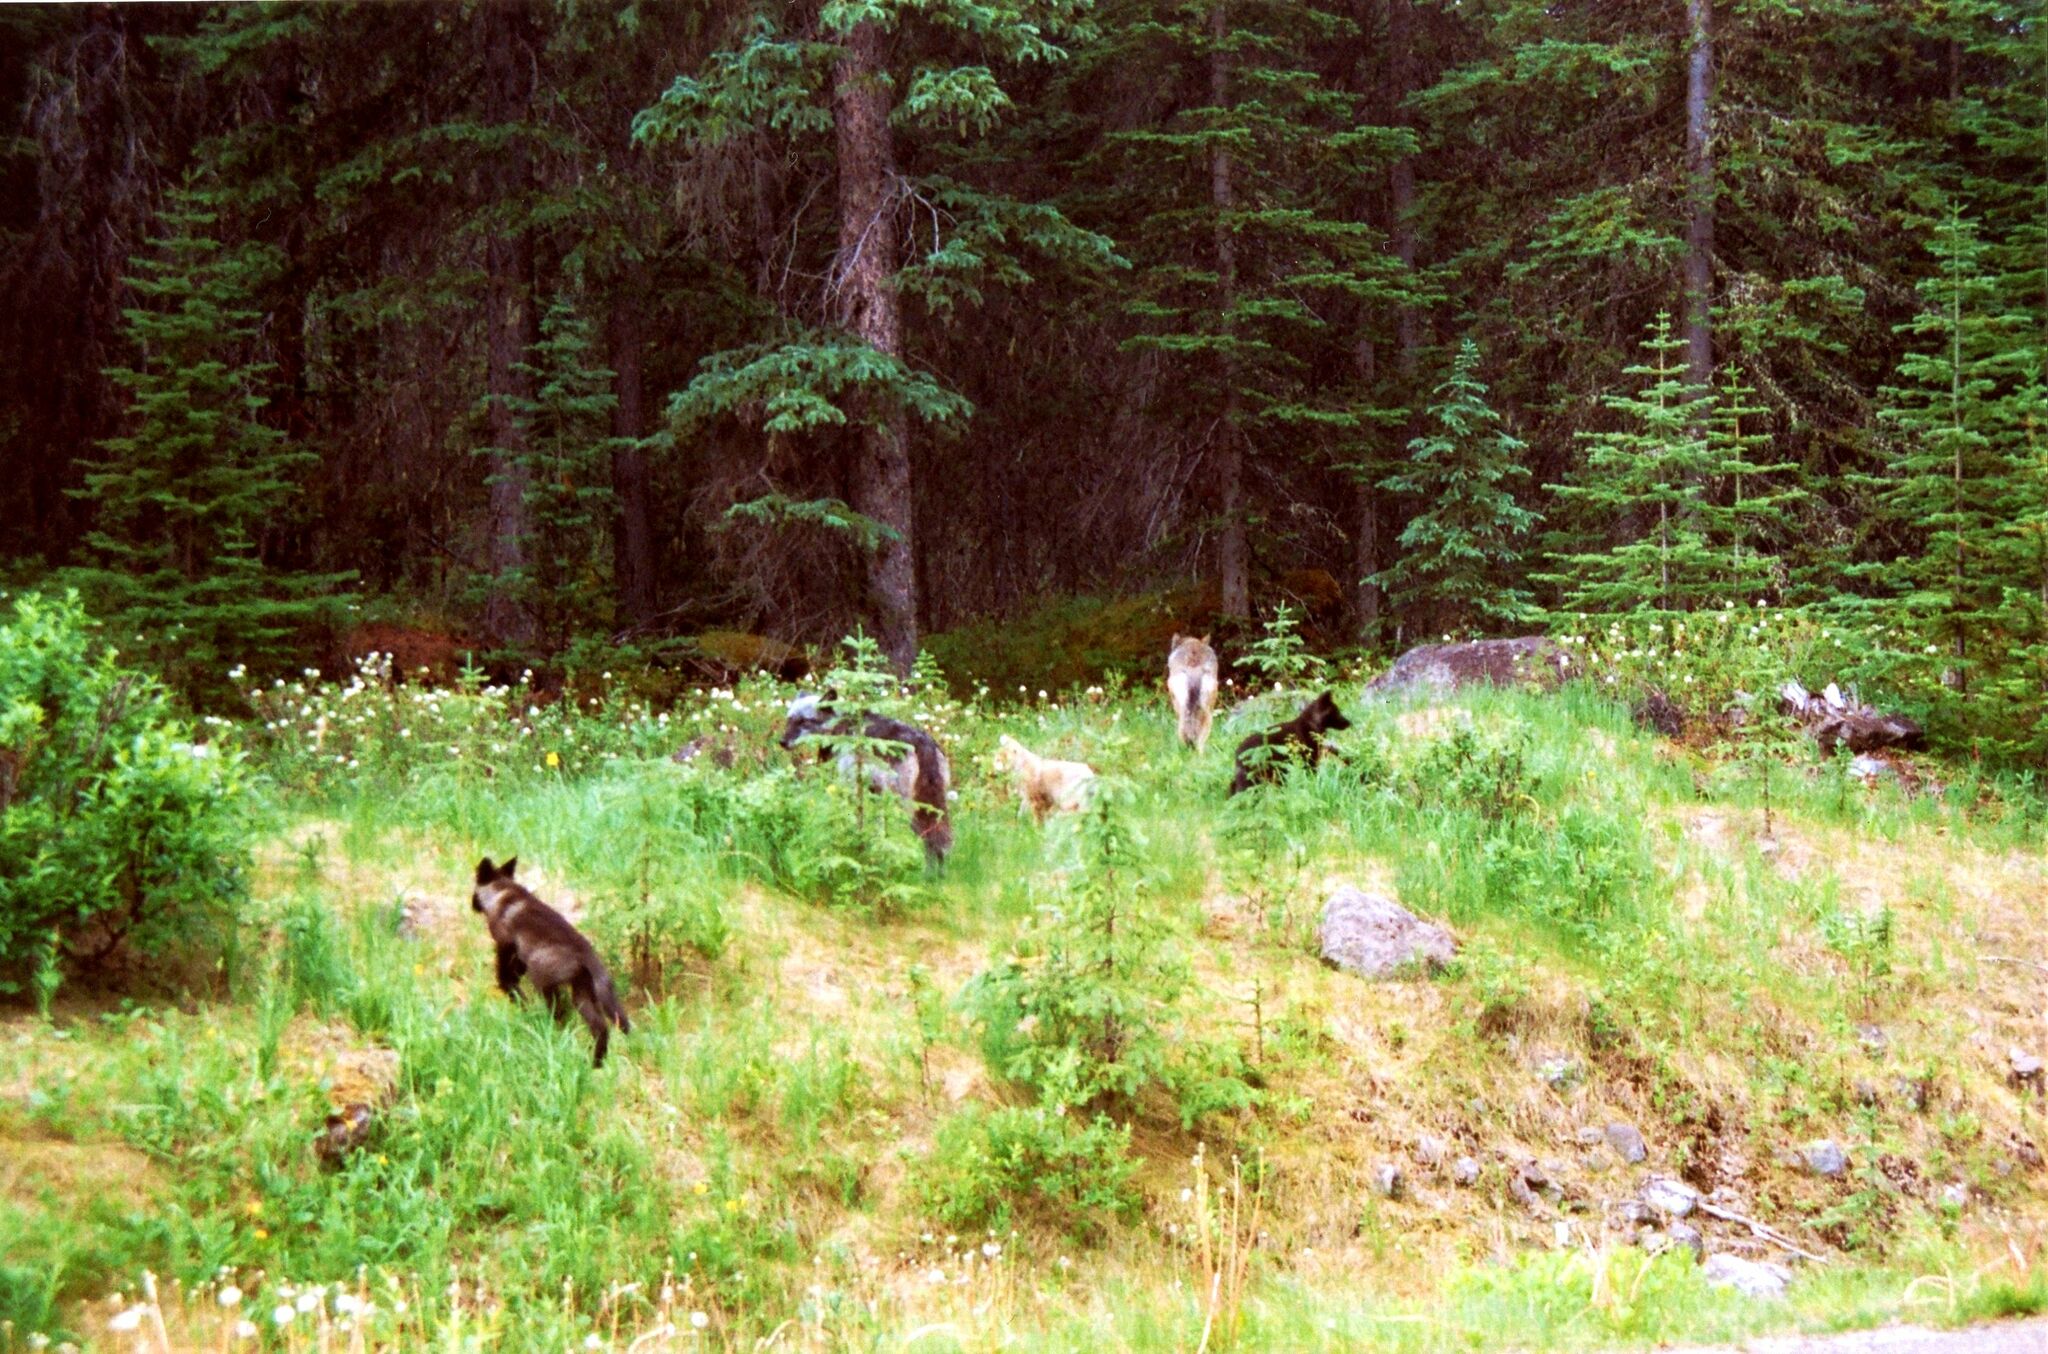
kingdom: Animalia
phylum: Chordata
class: Mammalia
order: Carnivora
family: Canidae
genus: Canis
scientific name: Canis lupus
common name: Gray wolf
